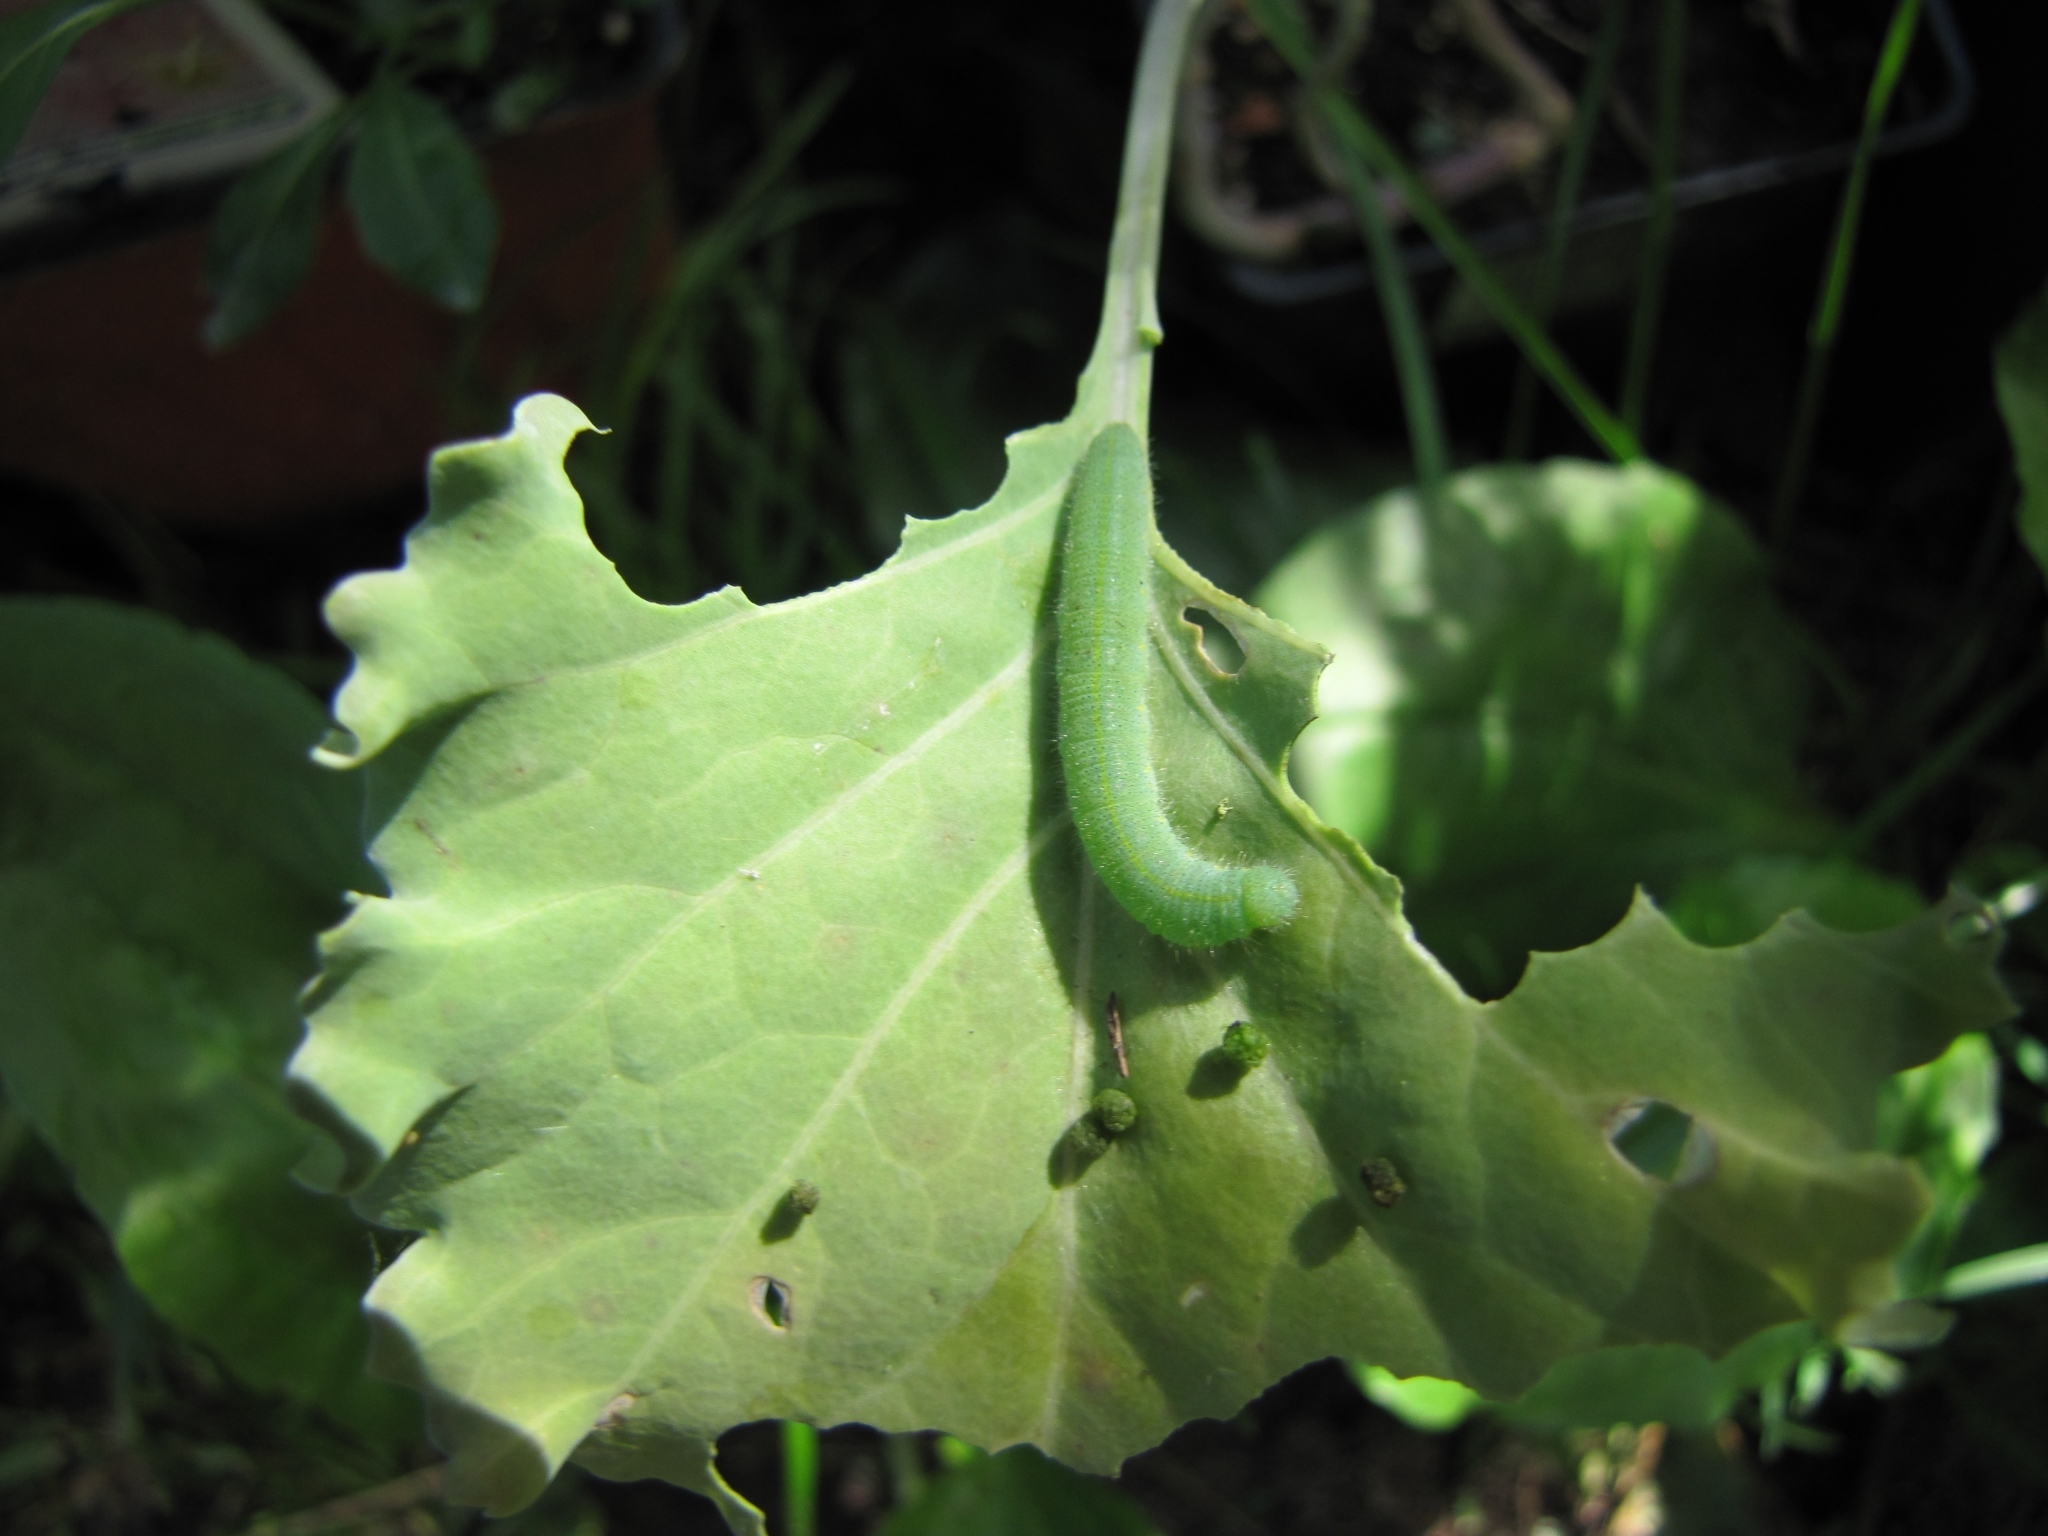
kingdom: Animalia
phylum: Arthropoda
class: Insecta
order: Lepidoptera
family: Pieridae
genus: Pieris
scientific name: Pieris rapae
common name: Small white
